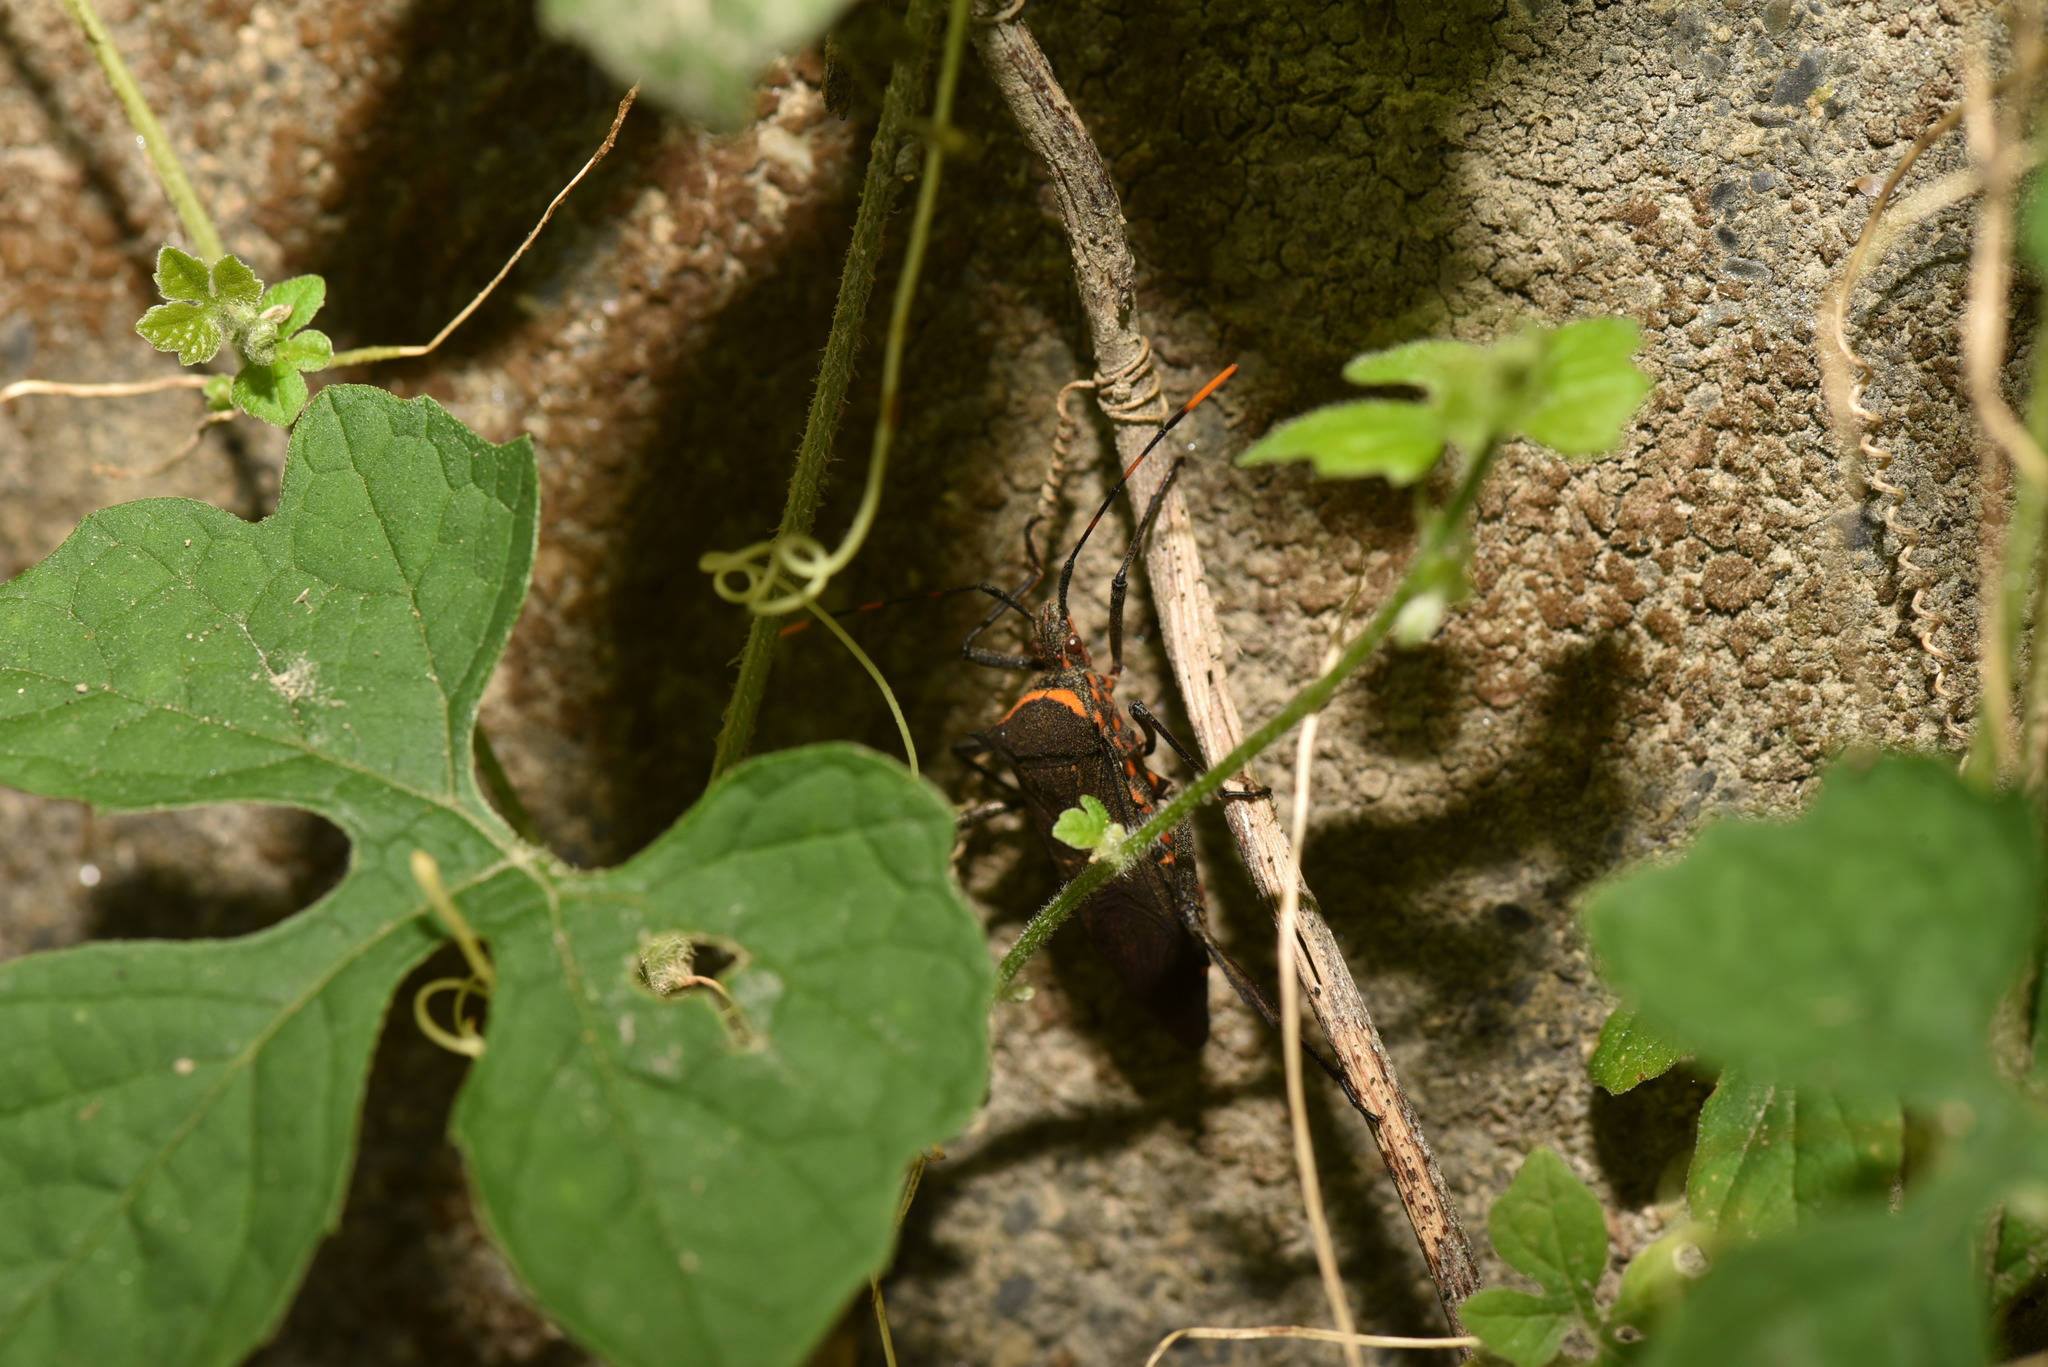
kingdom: Animalia
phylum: Arthropoda
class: Insecta
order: Hemiptera
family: Coreidae
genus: Leptoglossus
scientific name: Leptoglossus gonagra
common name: Citron bug
